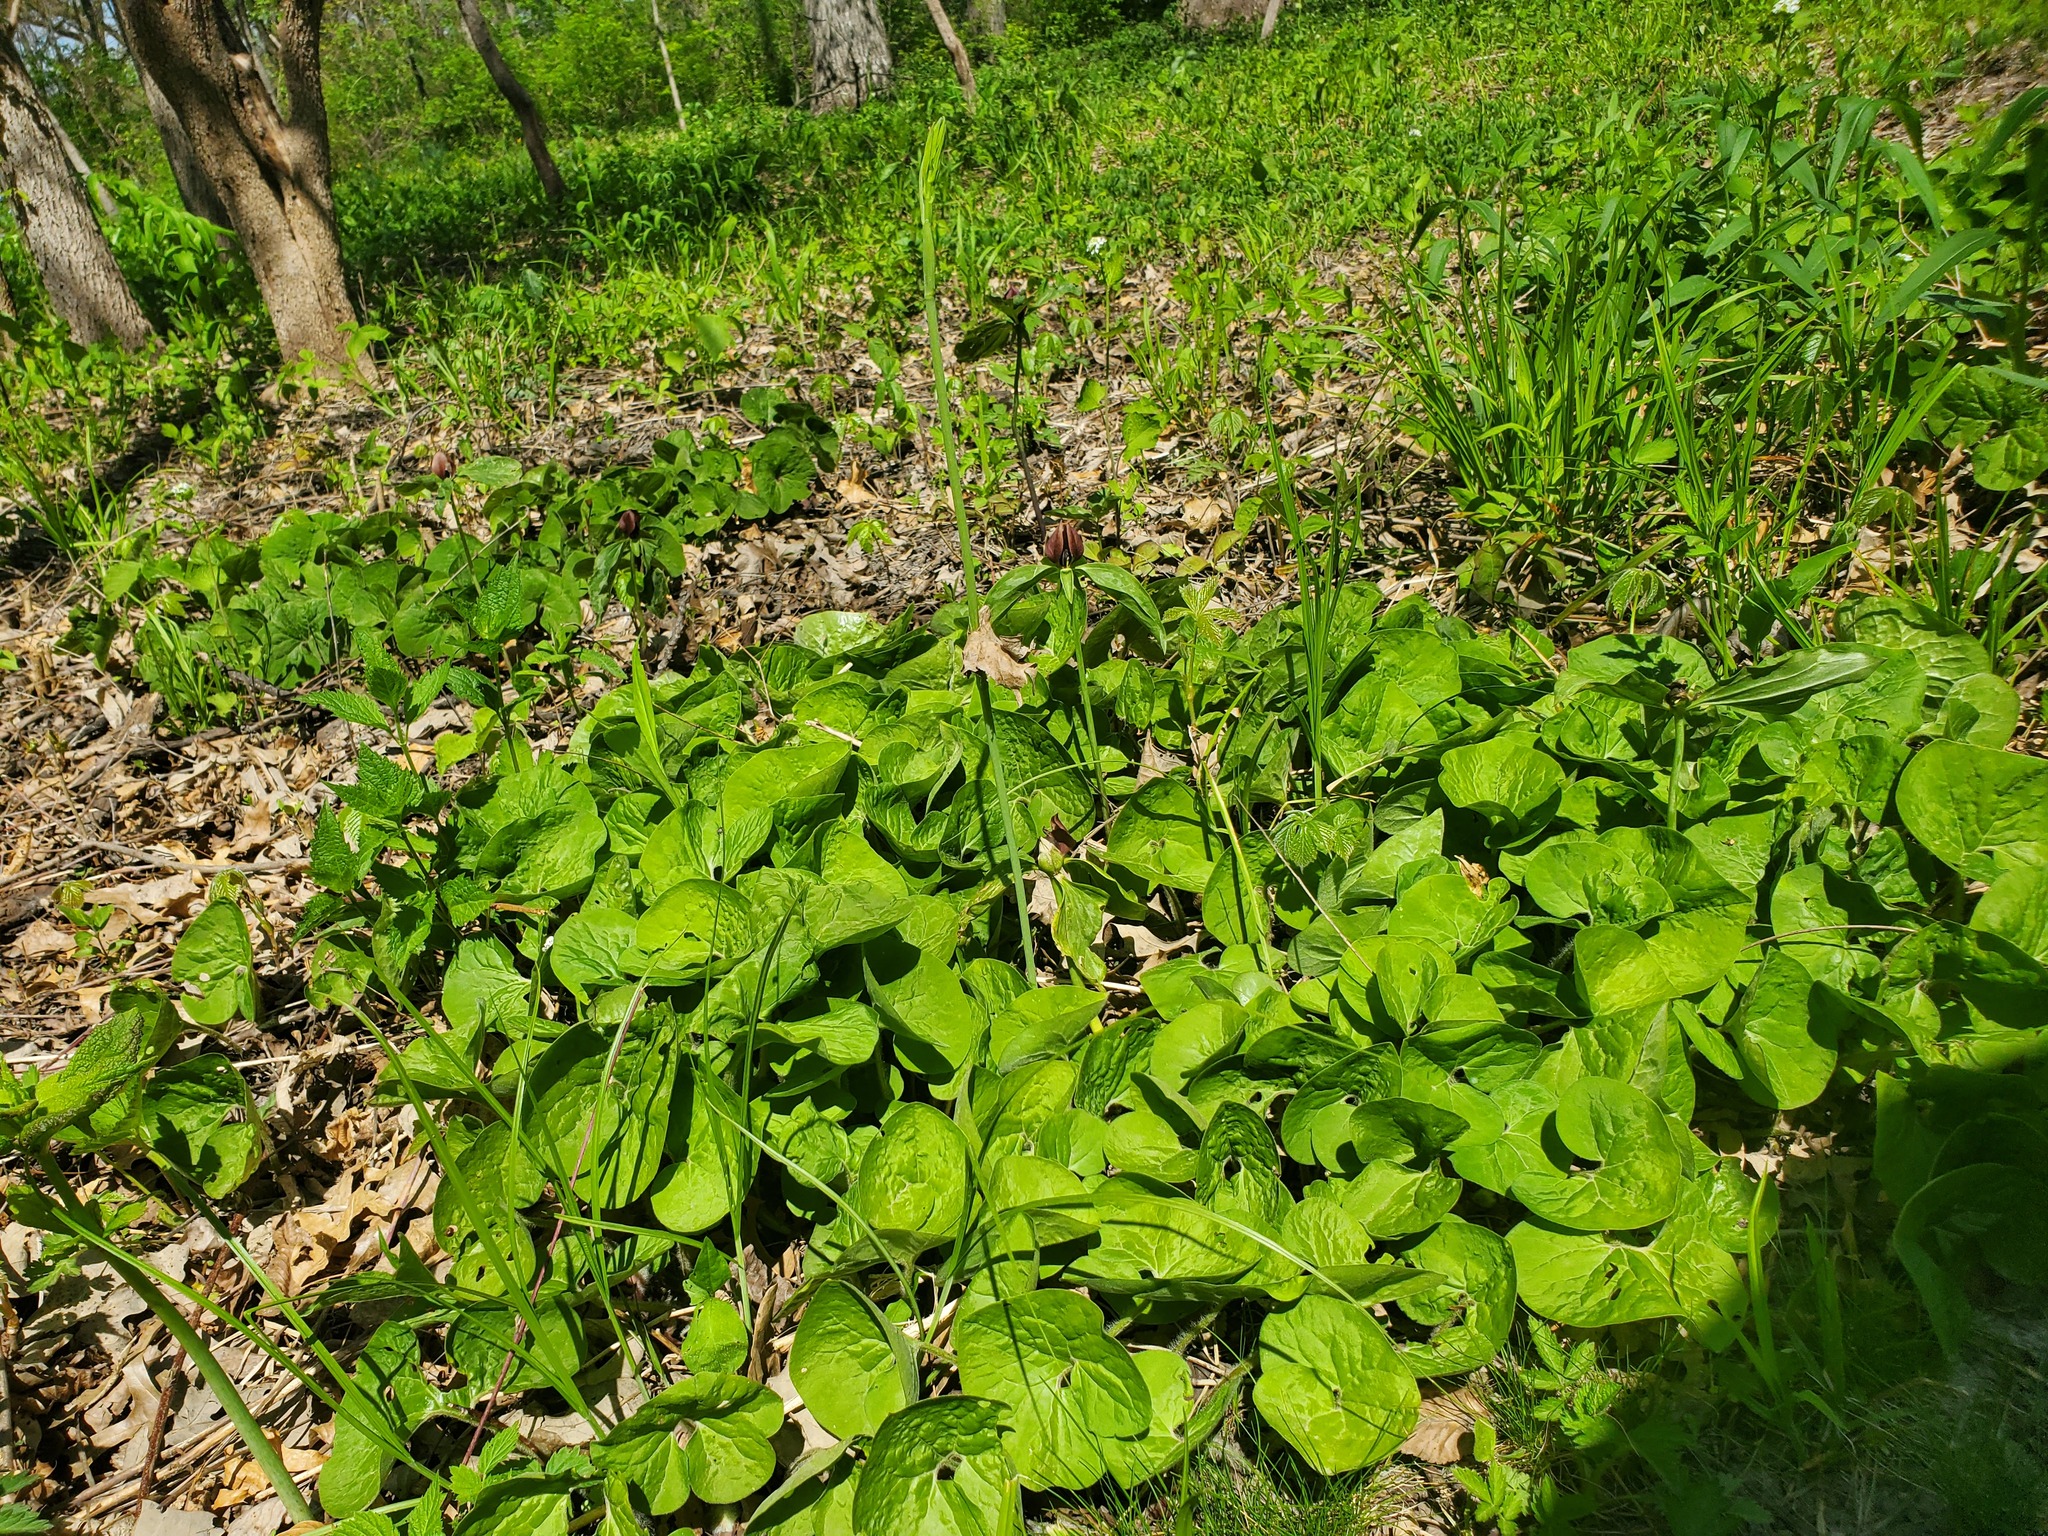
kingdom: Plantae
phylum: Tracheophyta
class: Magnoliopsida
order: Piperales
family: Aristolochiaceae
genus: Asarum
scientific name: Asarum canadense
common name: Wild ginger
